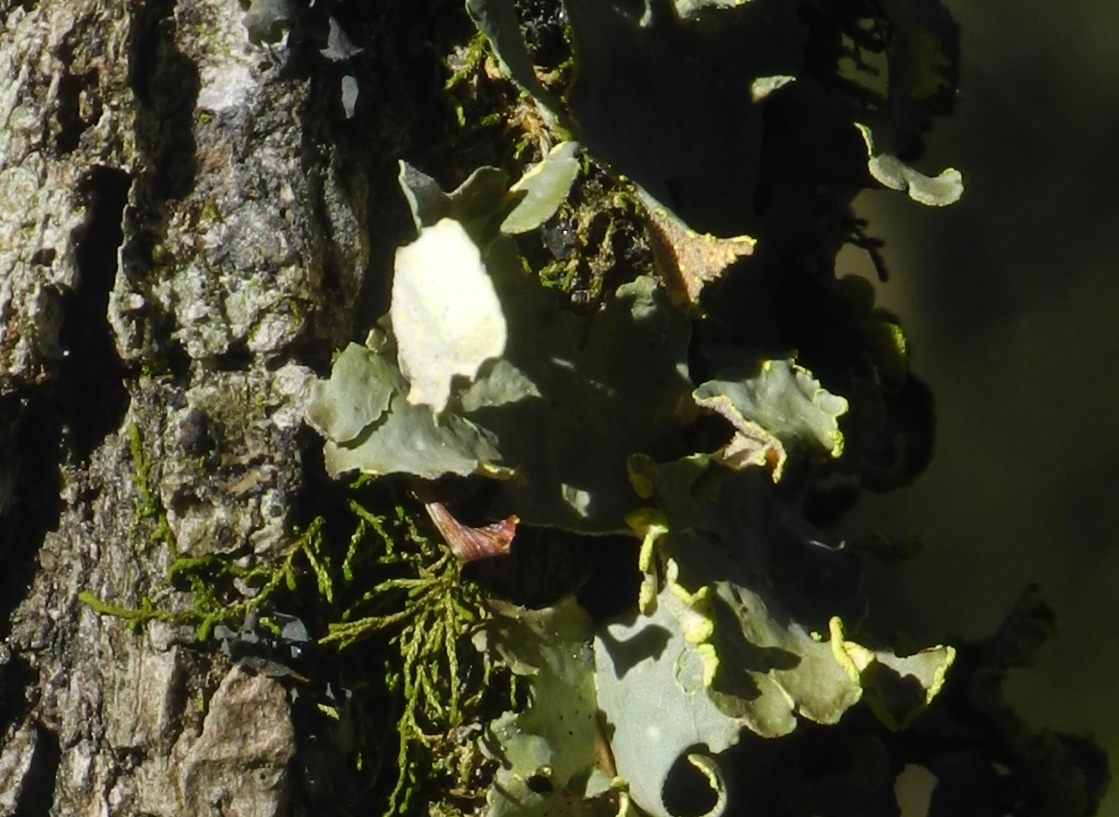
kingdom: Fungi
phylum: Ascomycota
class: Lecanoromycetes
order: Peltigerales
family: Lobariaceae
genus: Pseudocyphellaria
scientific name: Pseudocyphellaria aurata
